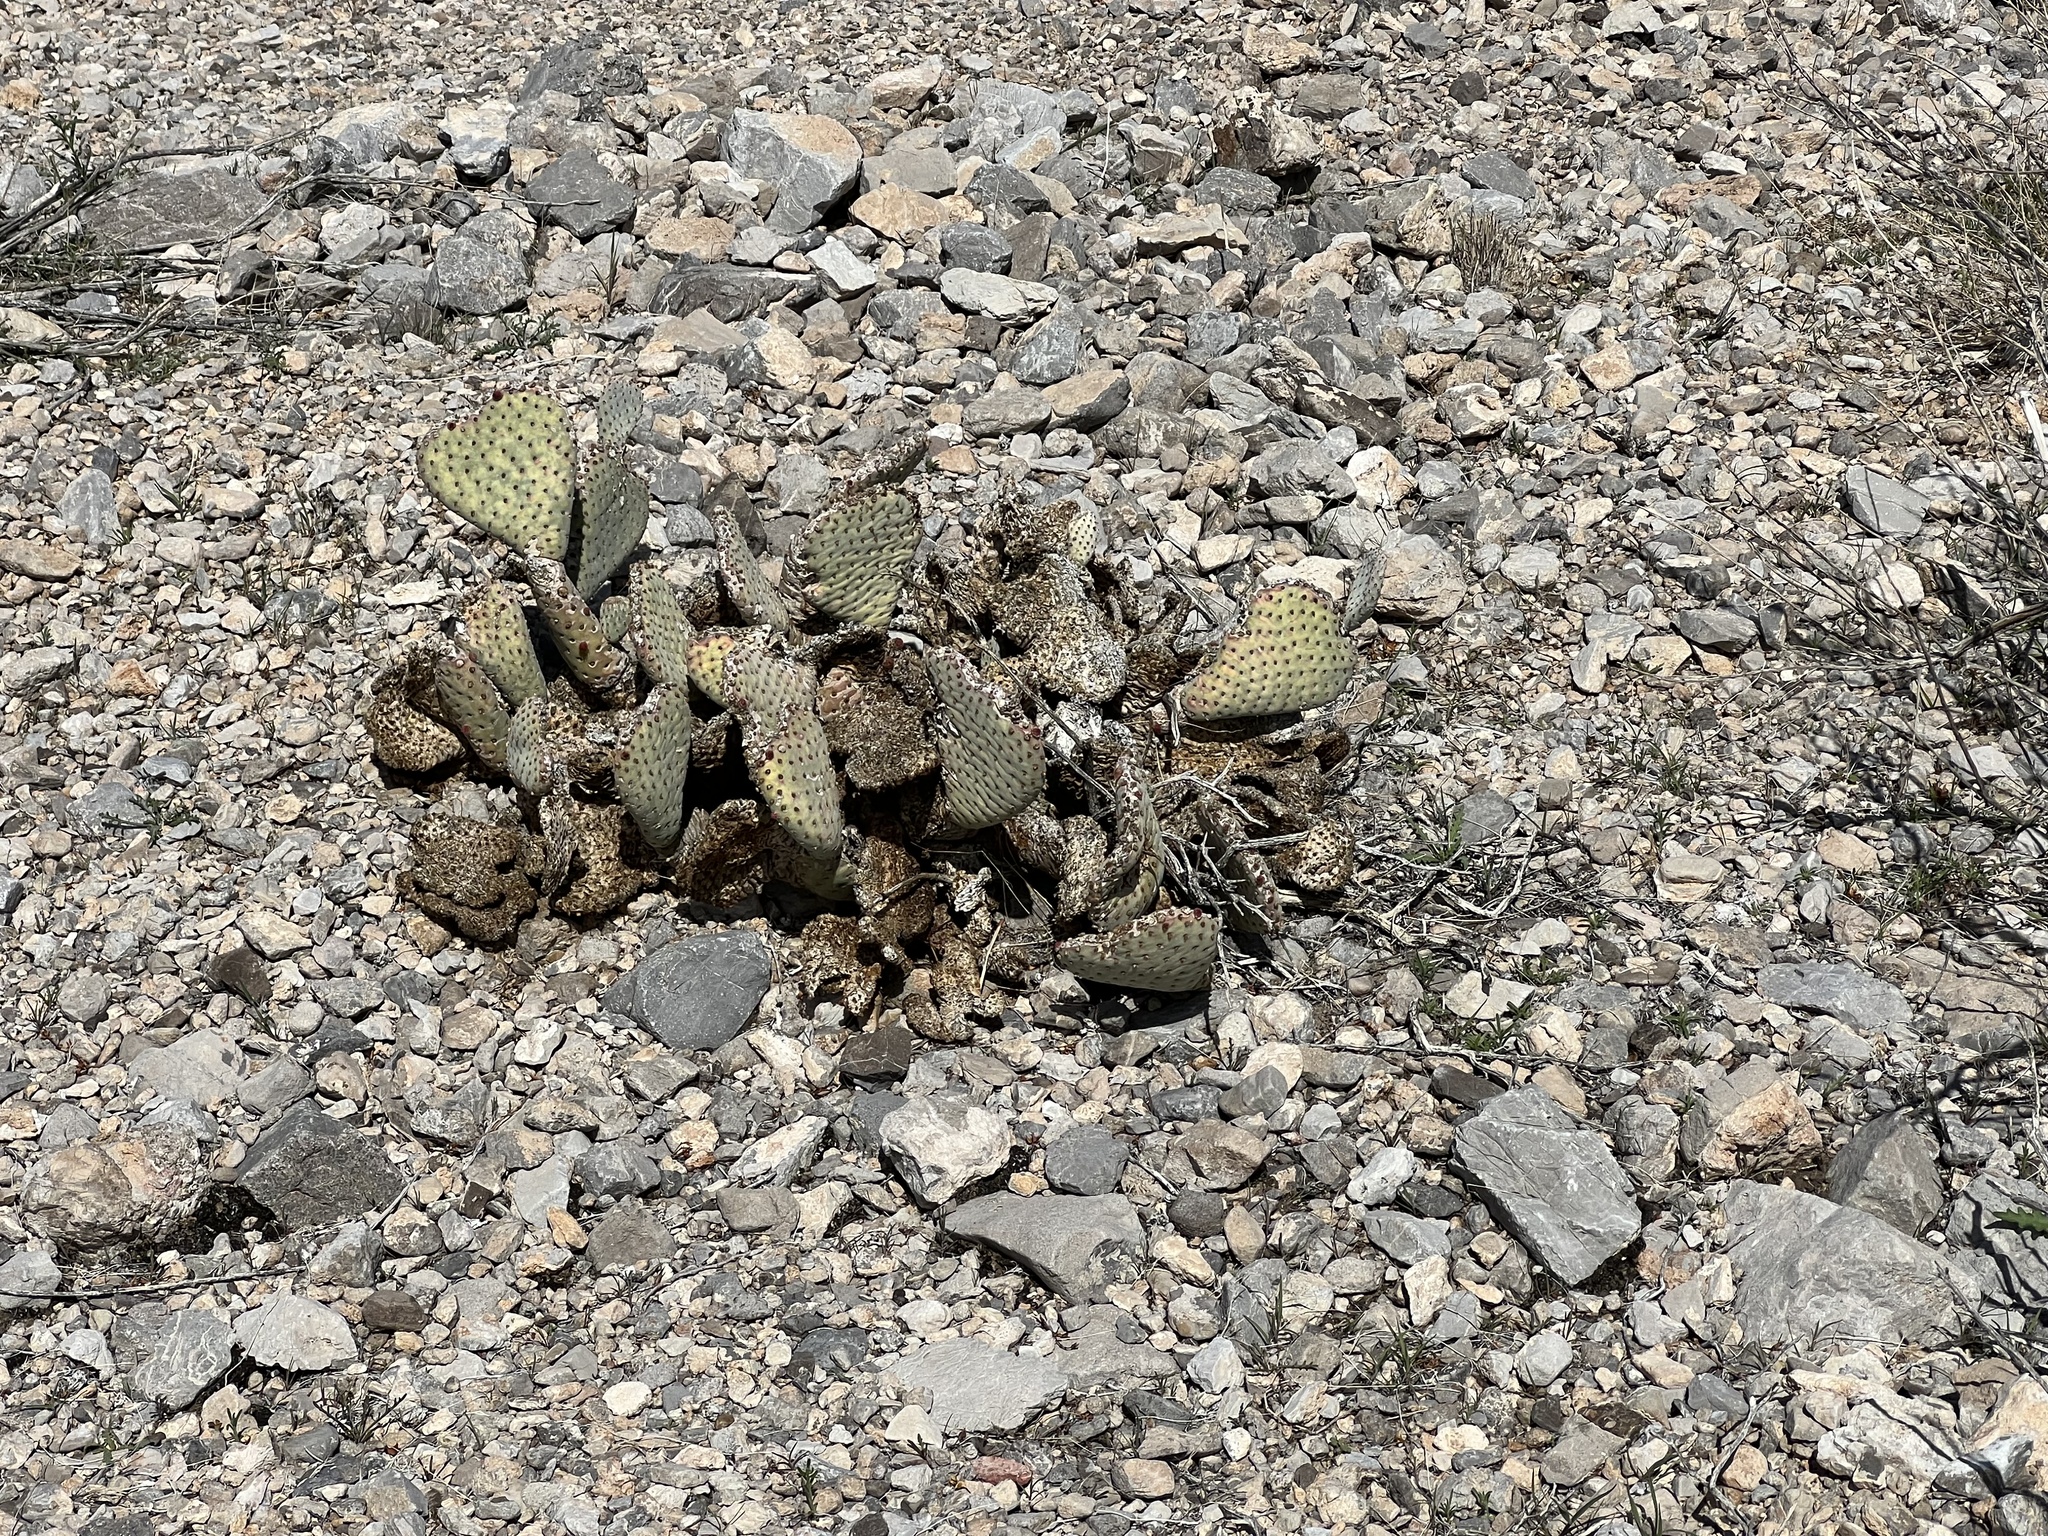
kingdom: Plantae
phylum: Tracheophyta
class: Magnoliopsida
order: Caryophyllales
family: Cactaceae
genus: Opuntia
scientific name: Opuntia basilaris
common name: Beavertail prickly-pear
